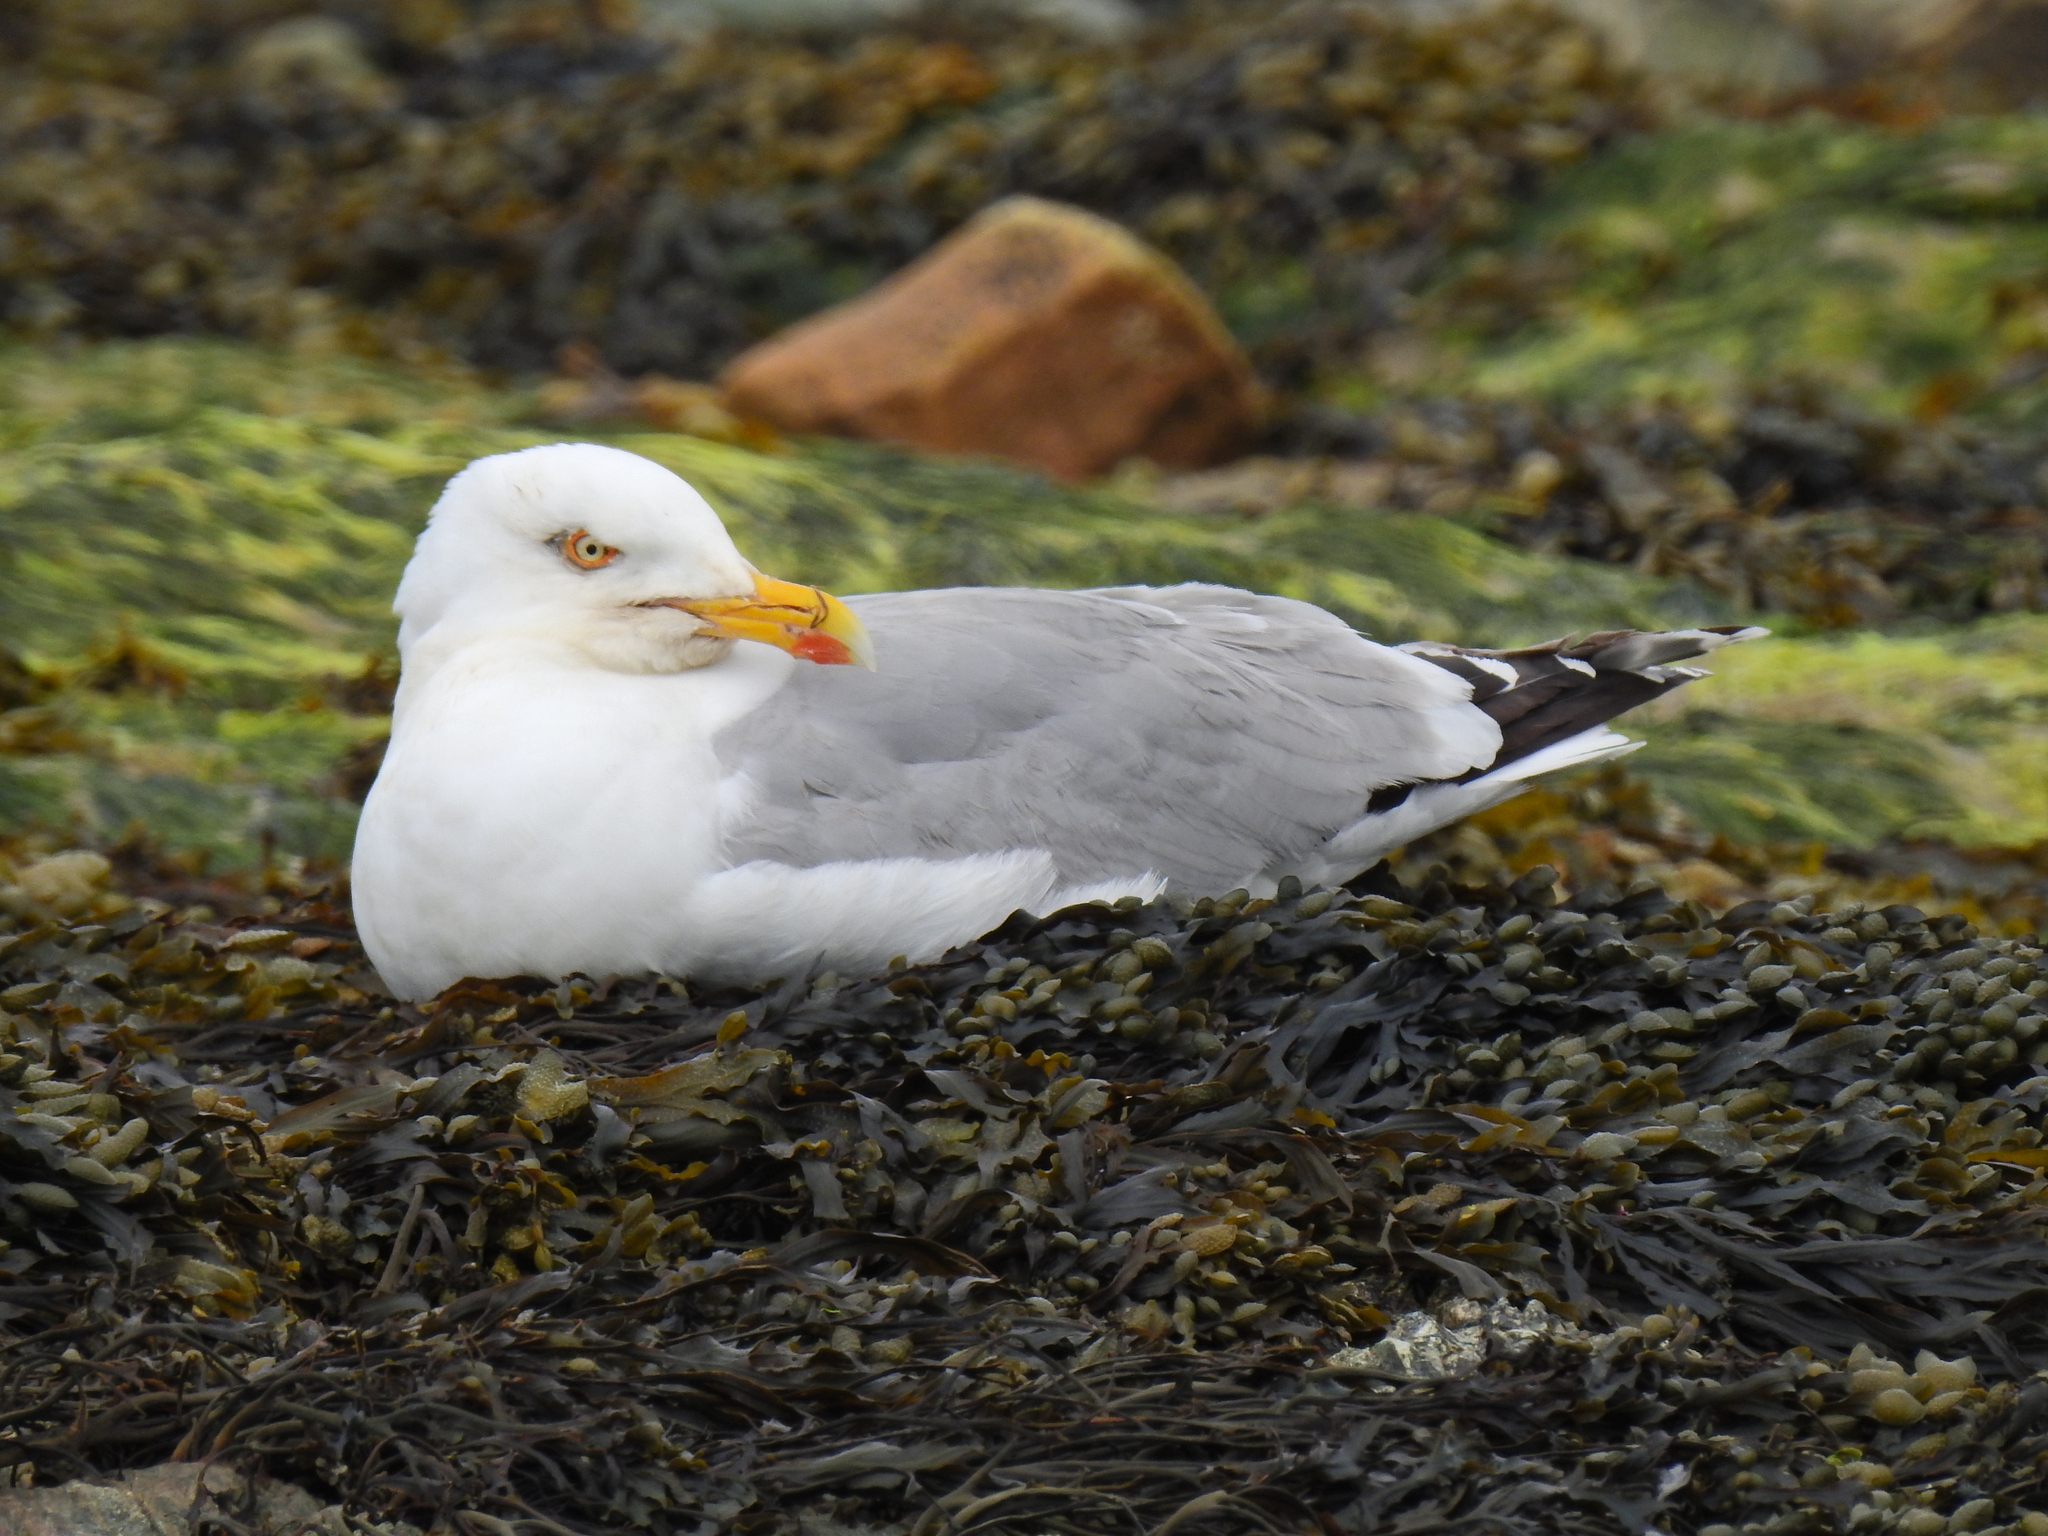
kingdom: Animalia
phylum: Chordata
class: Aves
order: Charadriiformes
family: Laridae
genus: Larus
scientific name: Larus argentatus
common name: Herring gull
